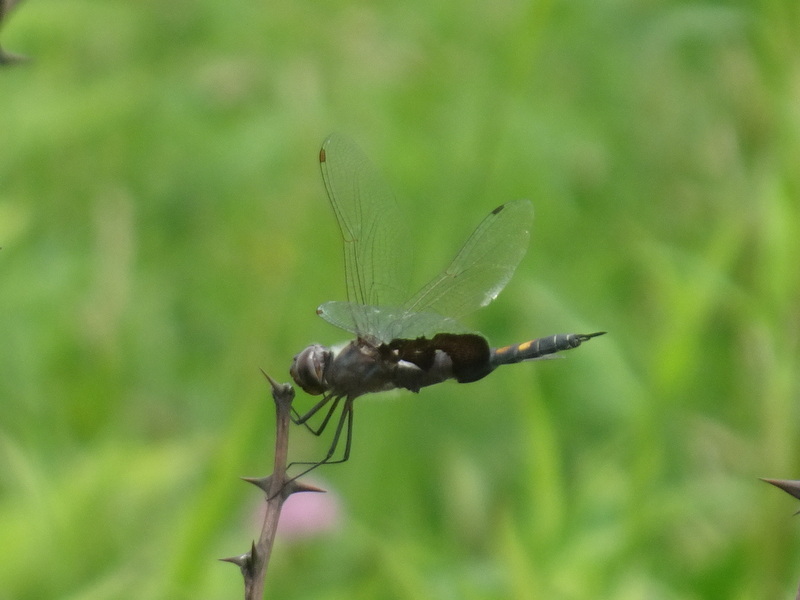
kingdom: Animalia
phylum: Arthropoda
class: Insecta
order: Odonata
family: Libellulidae
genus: Tramea
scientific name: Tramea lacerata
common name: Black saddlebags
